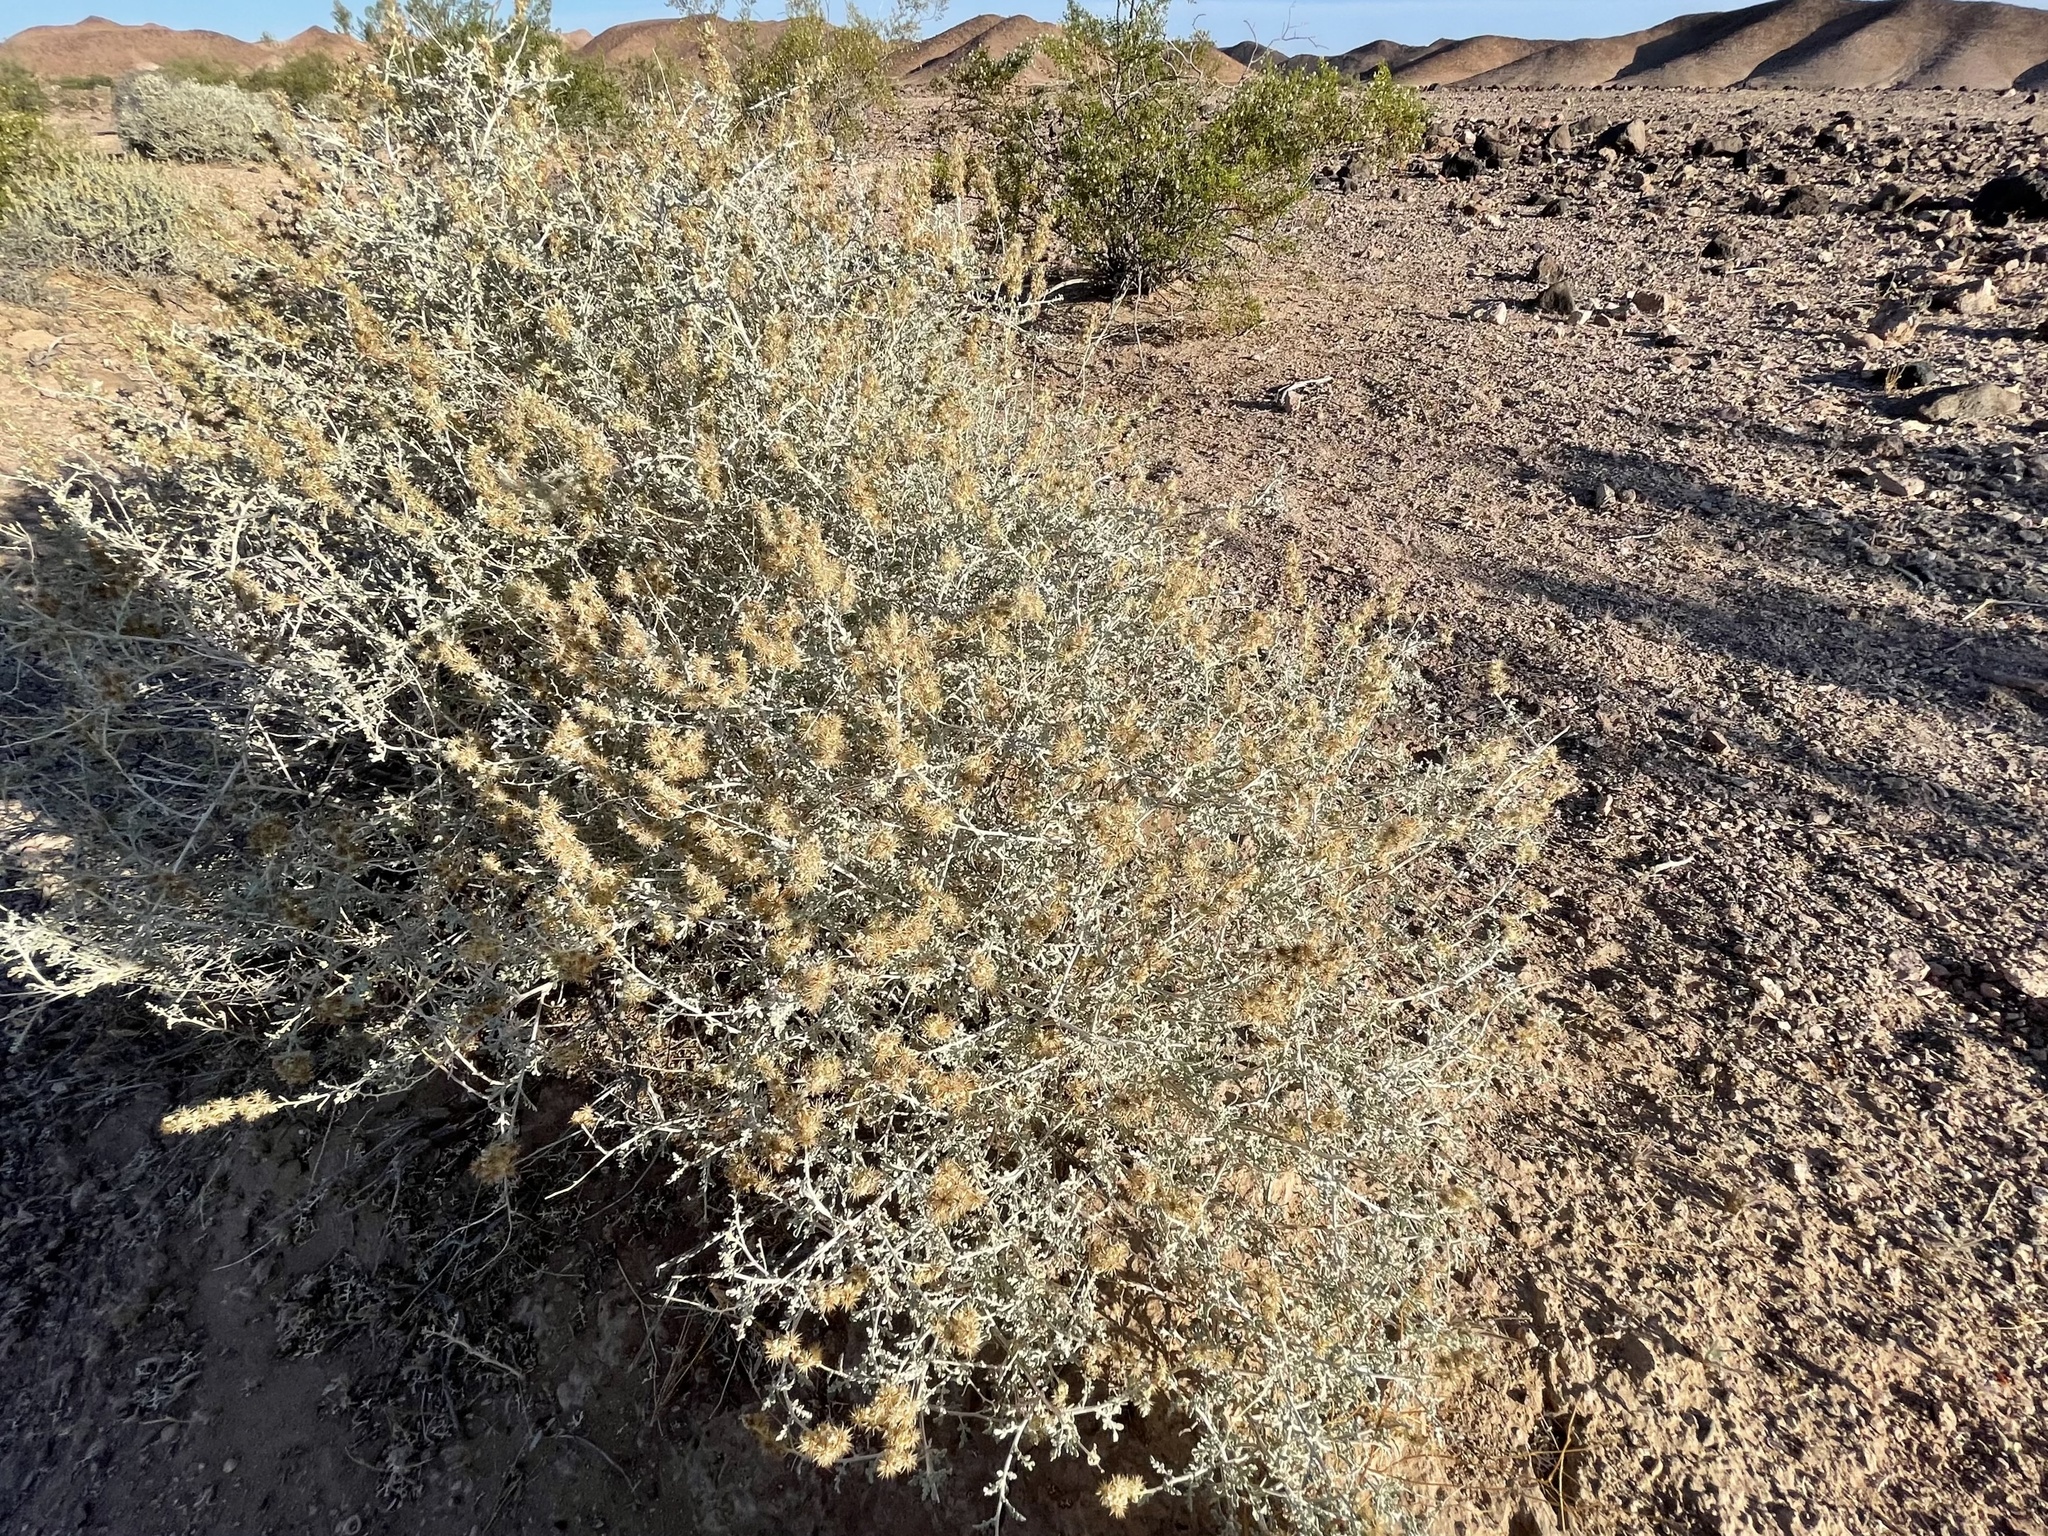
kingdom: Plantae
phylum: Tracheophyta
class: Magnoliopsida
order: Asterales
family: Asteraceae
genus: Ambrosia
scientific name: Ambrosia dumosa
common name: Bur-sage
